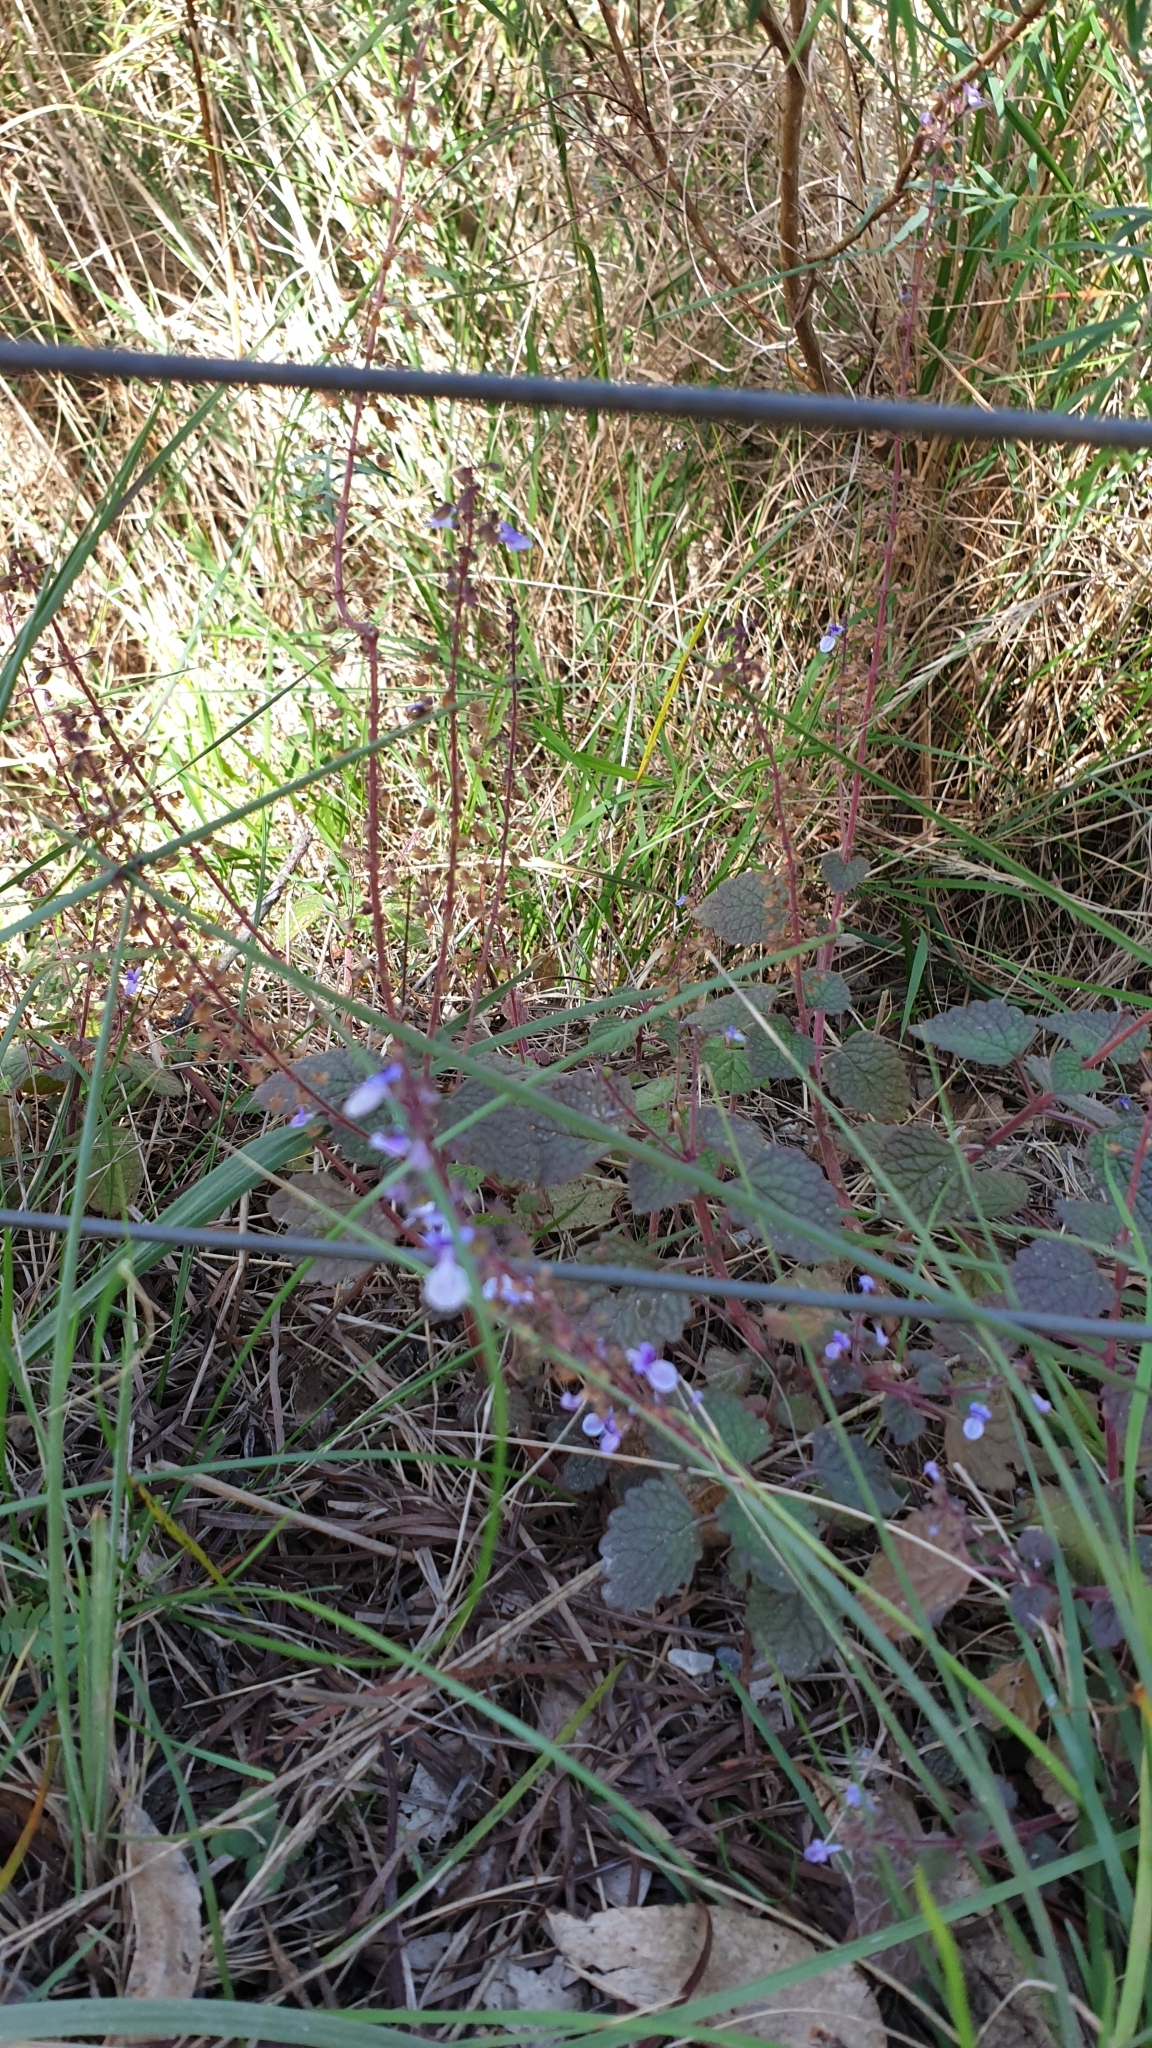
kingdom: Plantae
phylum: Tracheophyta
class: Magnoliopsida
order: Lamiales
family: Lamiaceae
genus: Coleus
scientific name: Coleus australis
